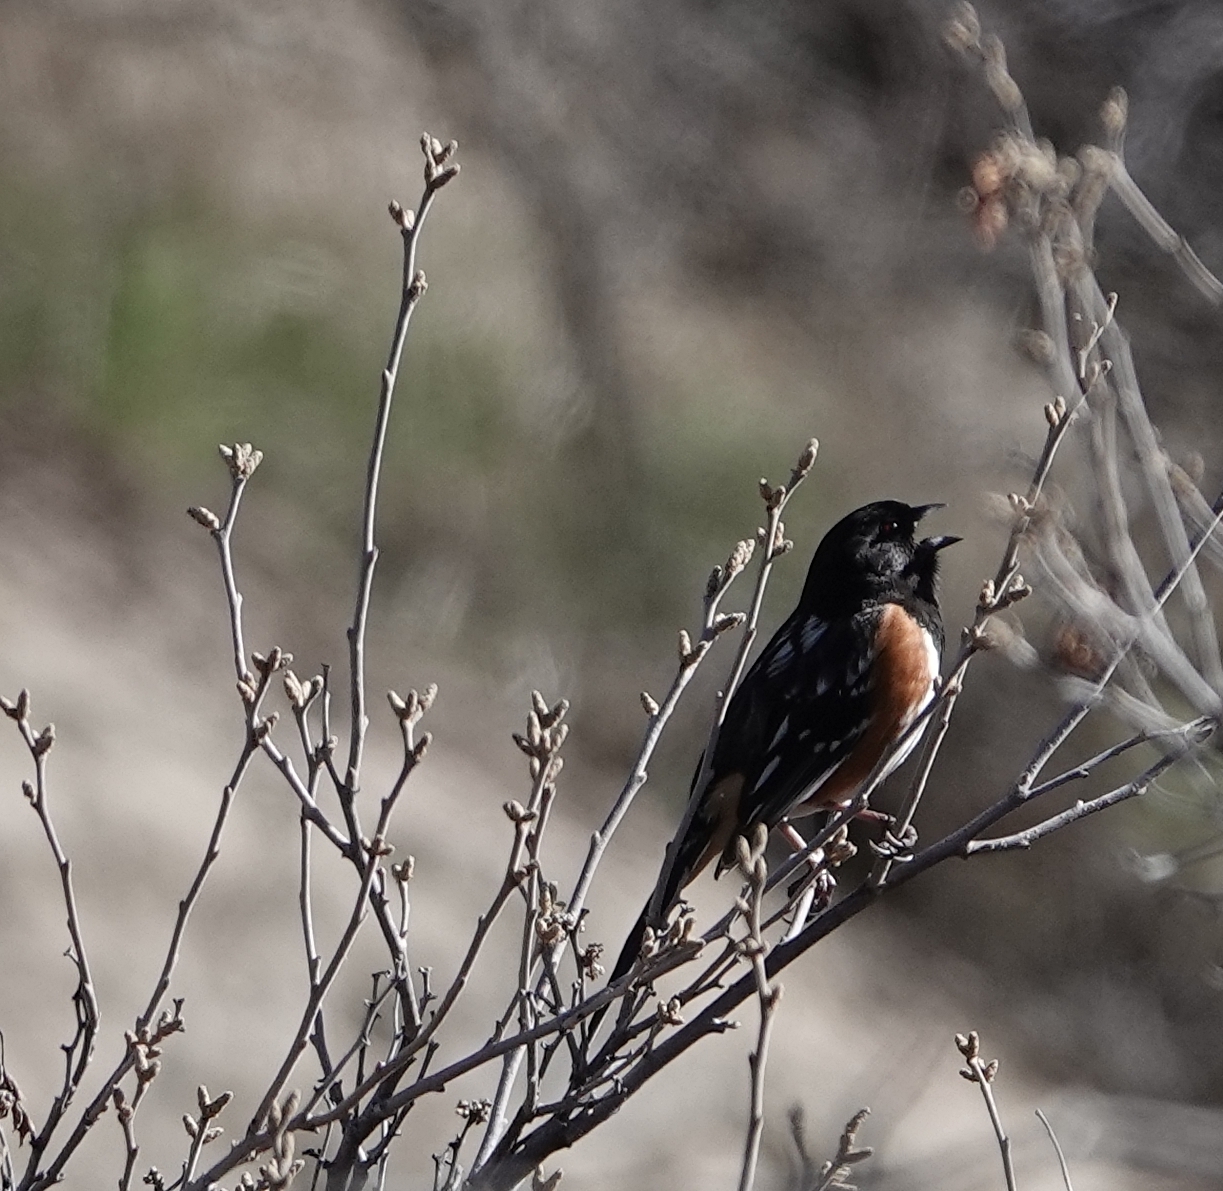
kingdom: Animalia
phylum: Chordata
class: Aves
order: Passeriformes
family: Passerellidae
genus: Pipilo
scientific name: Pipilo maculatus
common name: Spotted towhee
